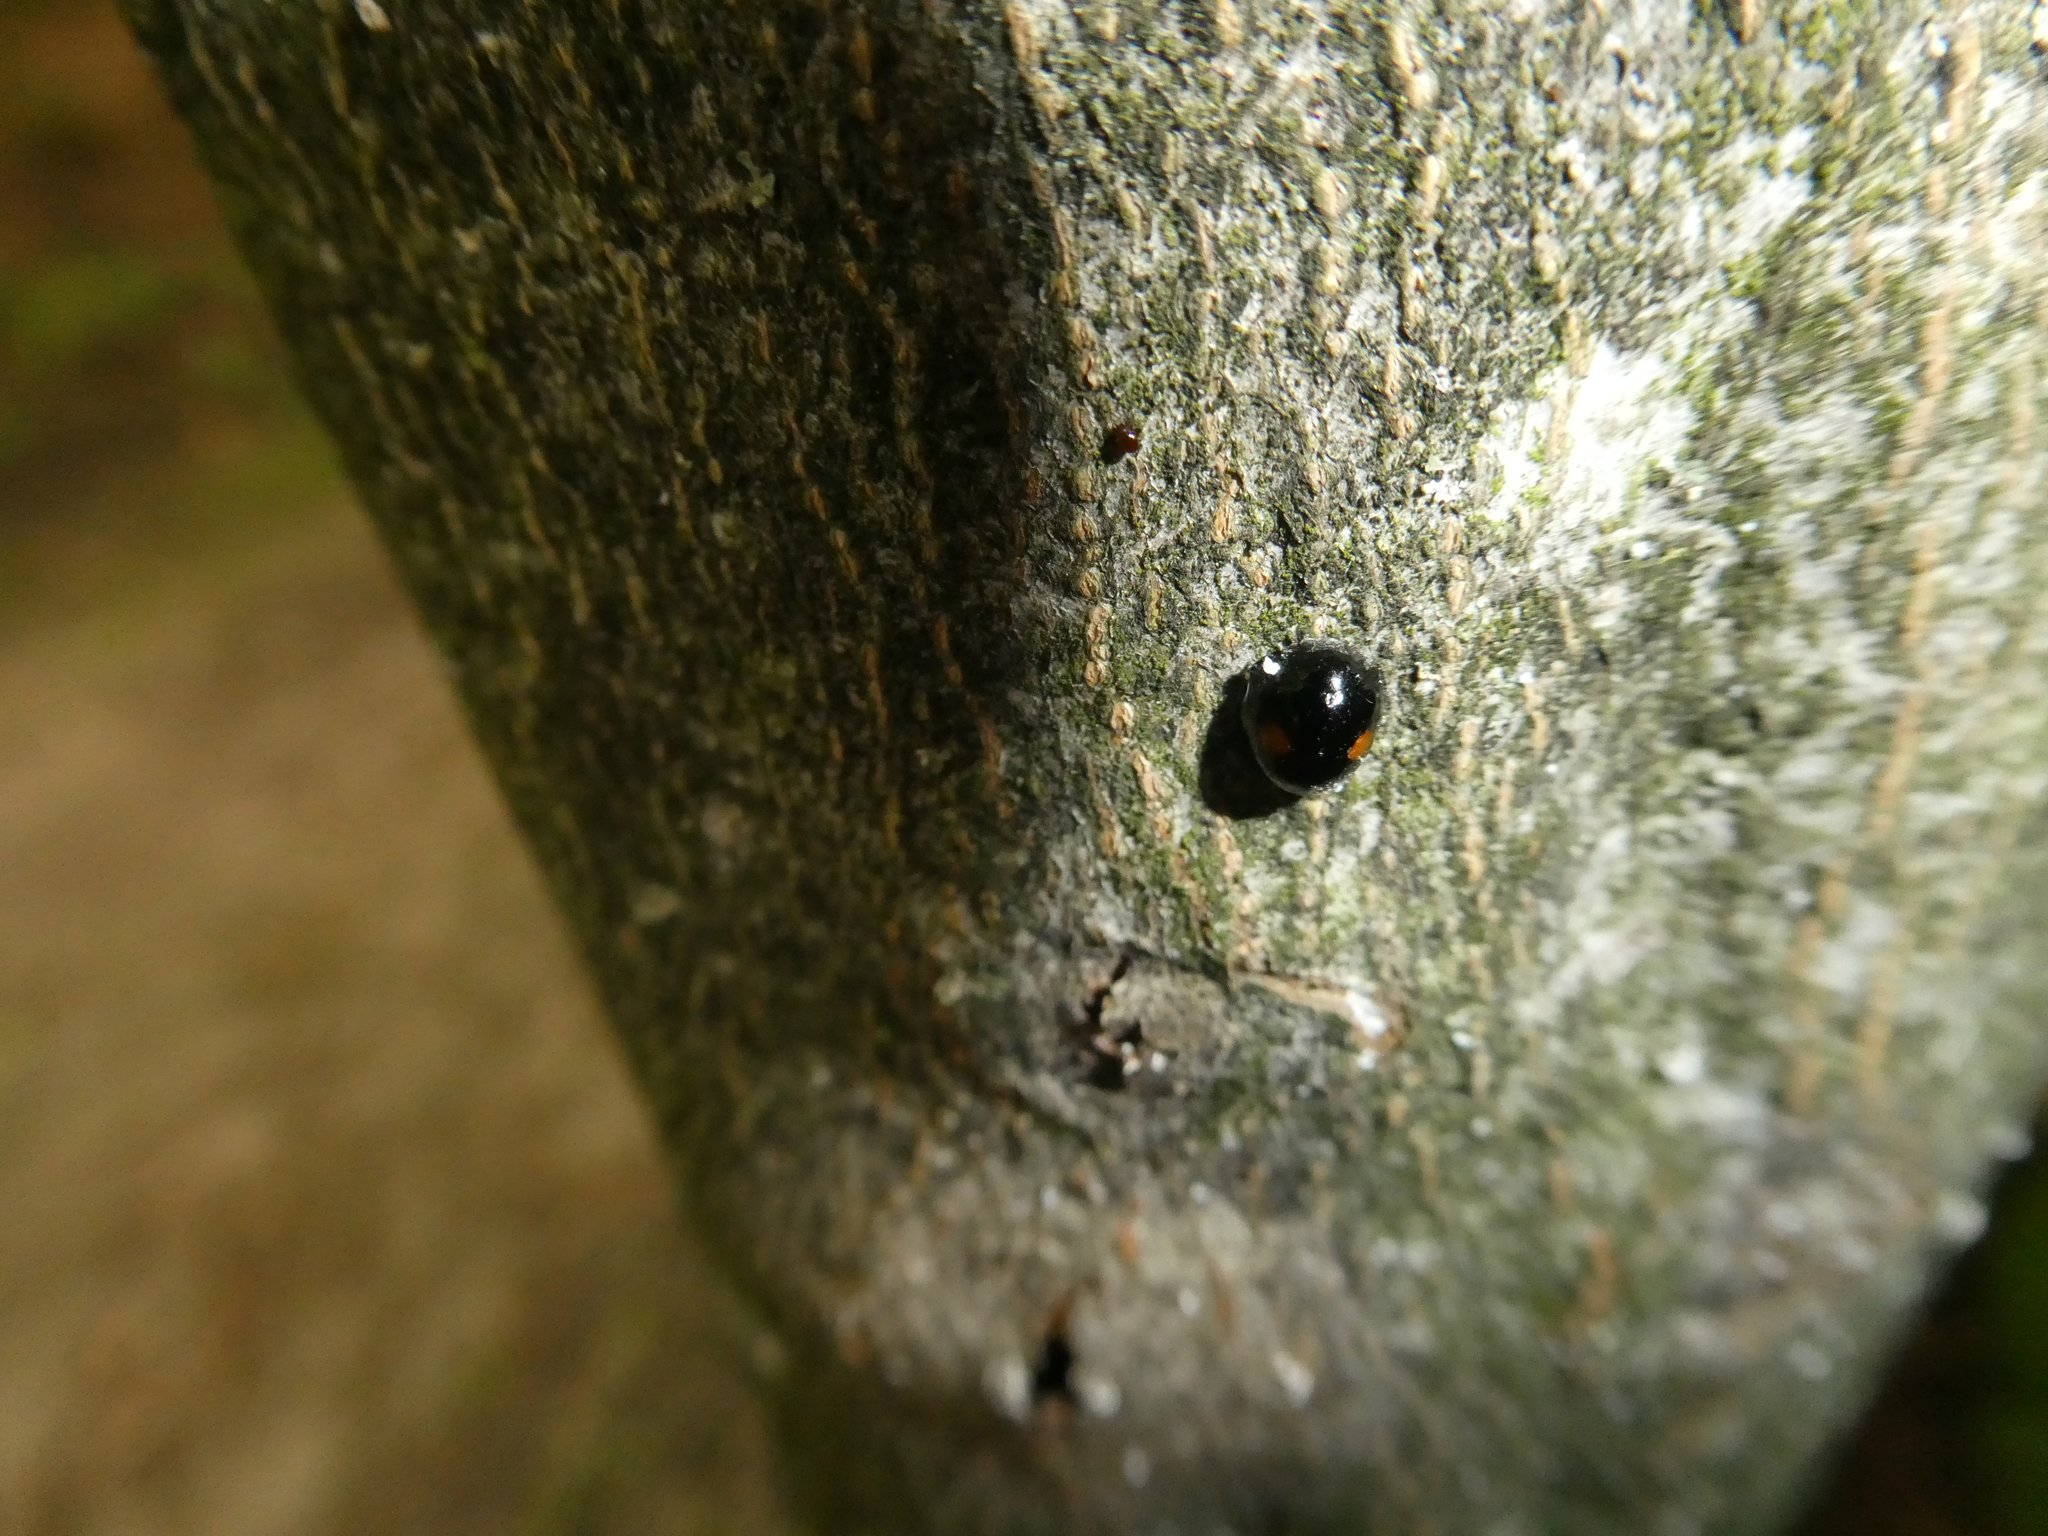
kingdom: Animalia
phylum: Arthropoda
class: Insecta
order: Coleoptera
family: Coccinellidae
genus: Chilocorus
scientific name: Chilocorus stigma
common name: Twicestabbed lady beetle
